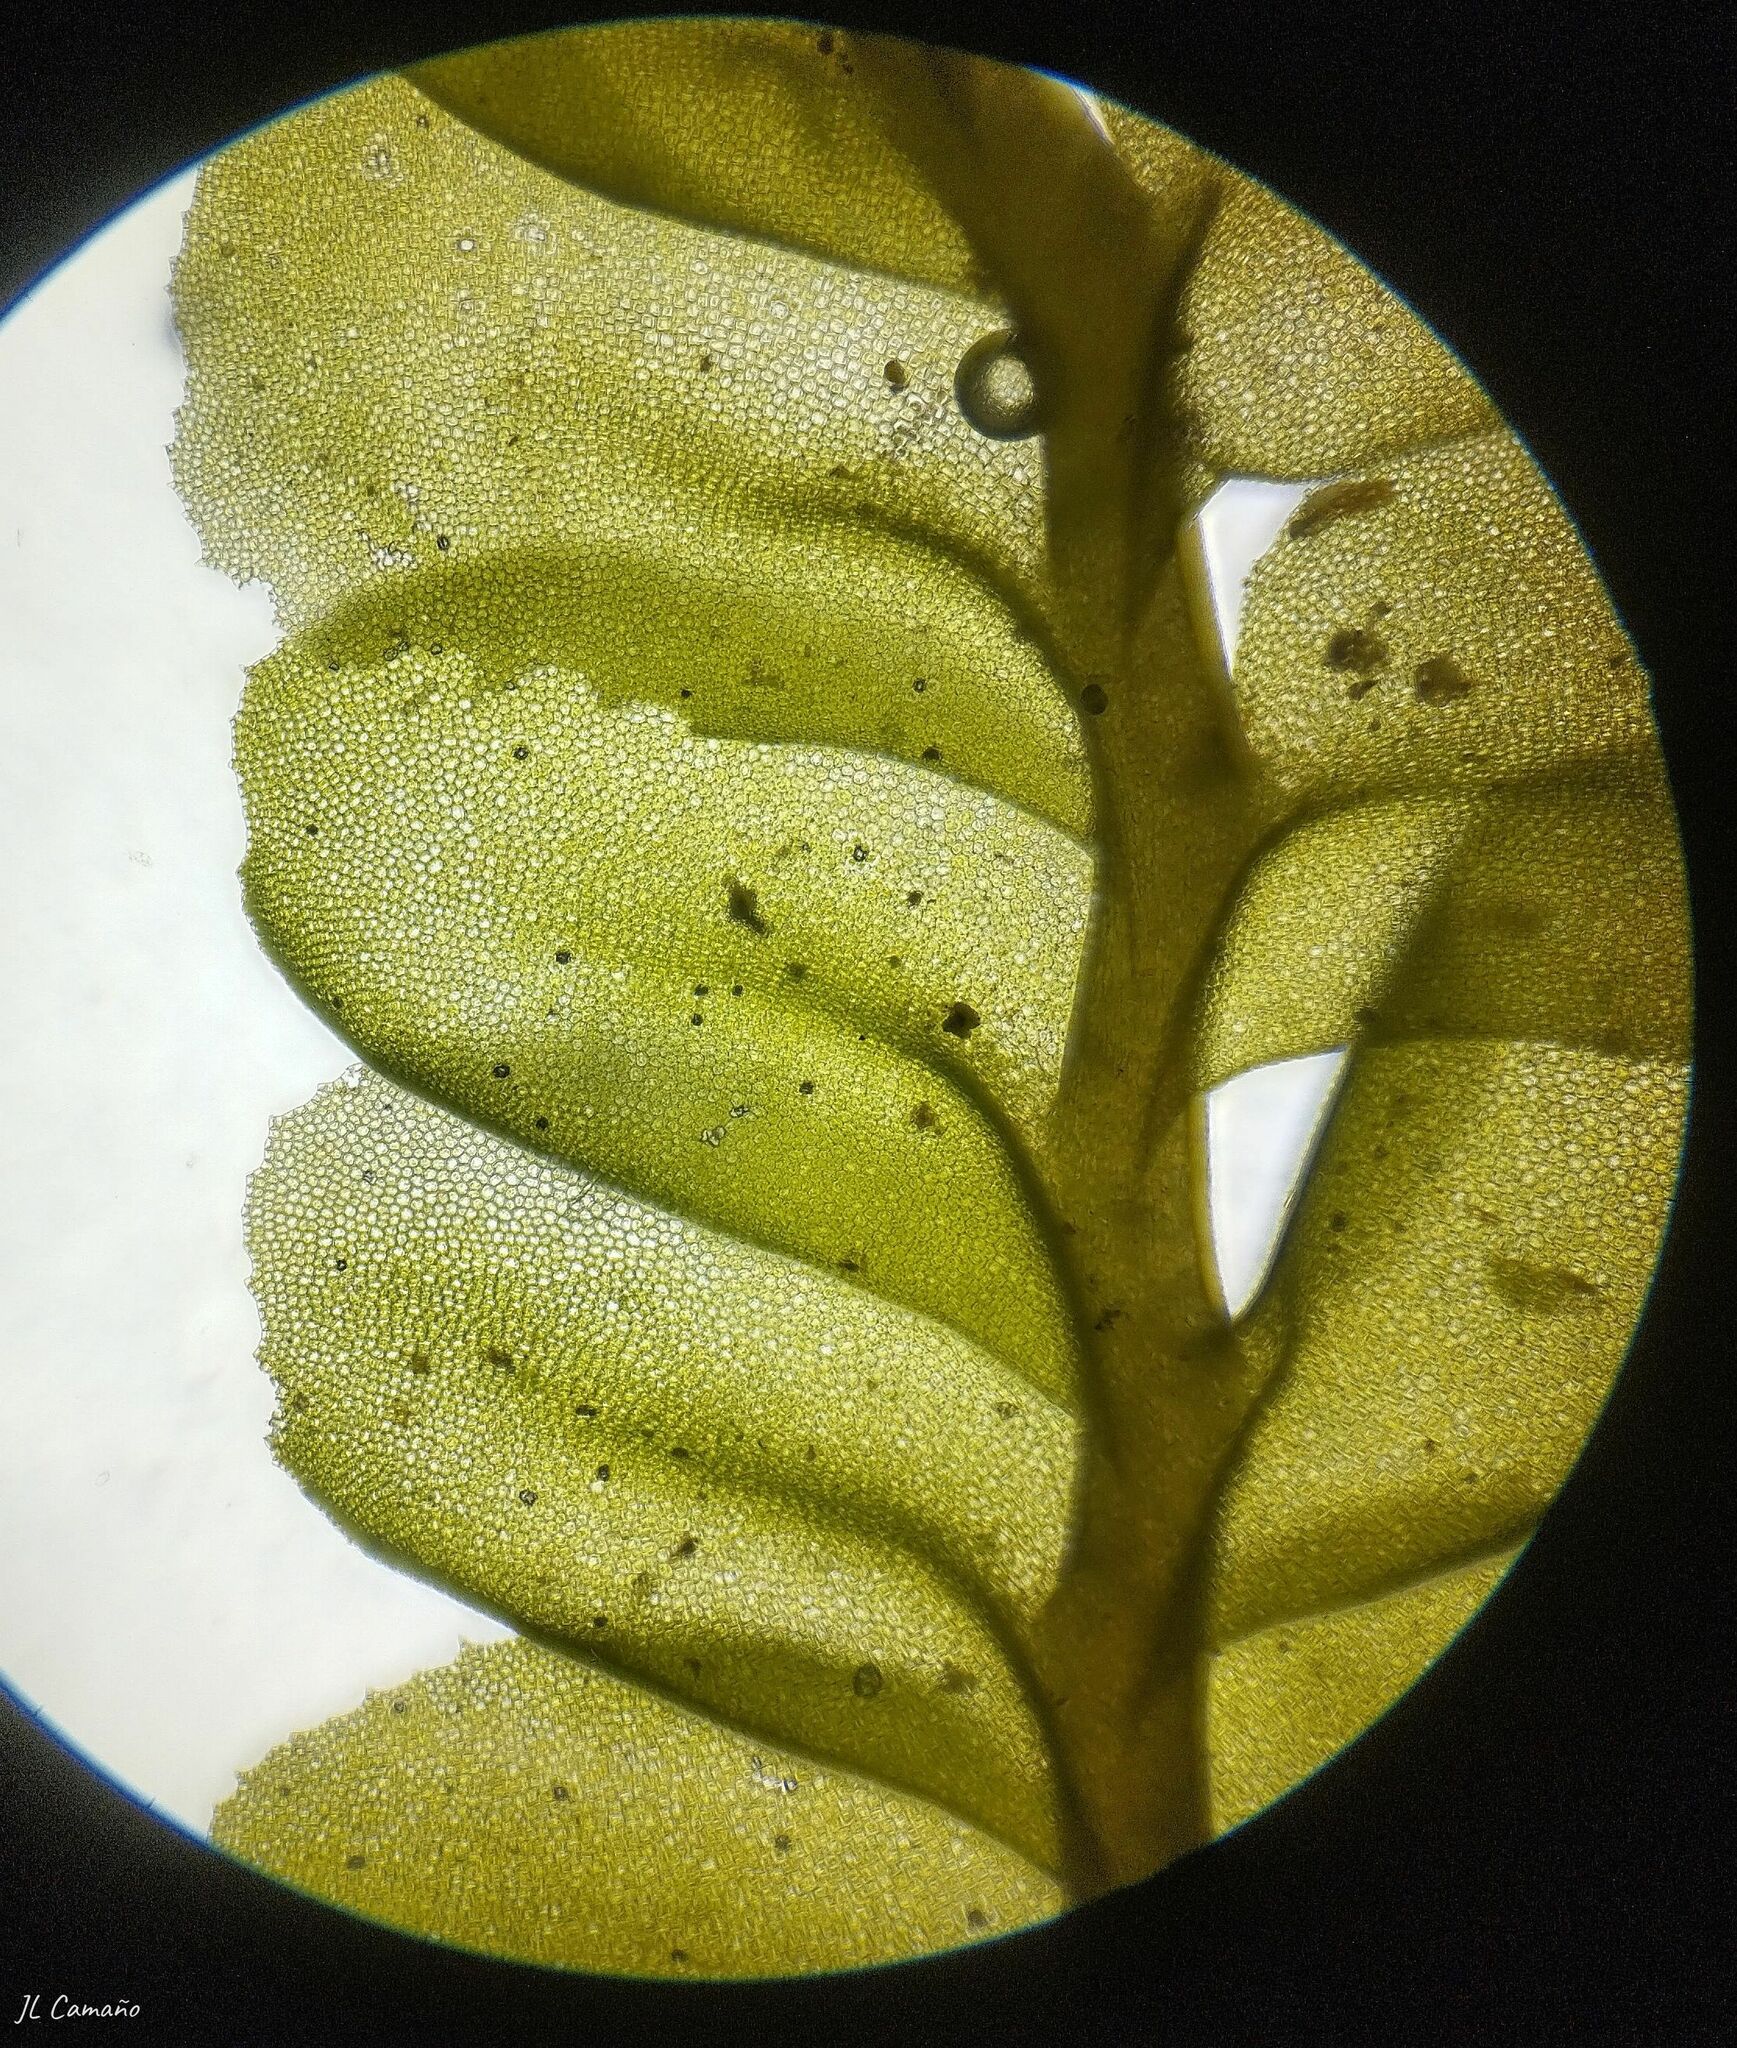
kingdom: Plantae
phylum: Marchantiophyta
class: Jungermanniopsida
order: Jungermanniales
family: Plagiochilaceae
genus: Plagiochila
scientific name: Plagiochila porelloides
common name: Lesser featherwort
